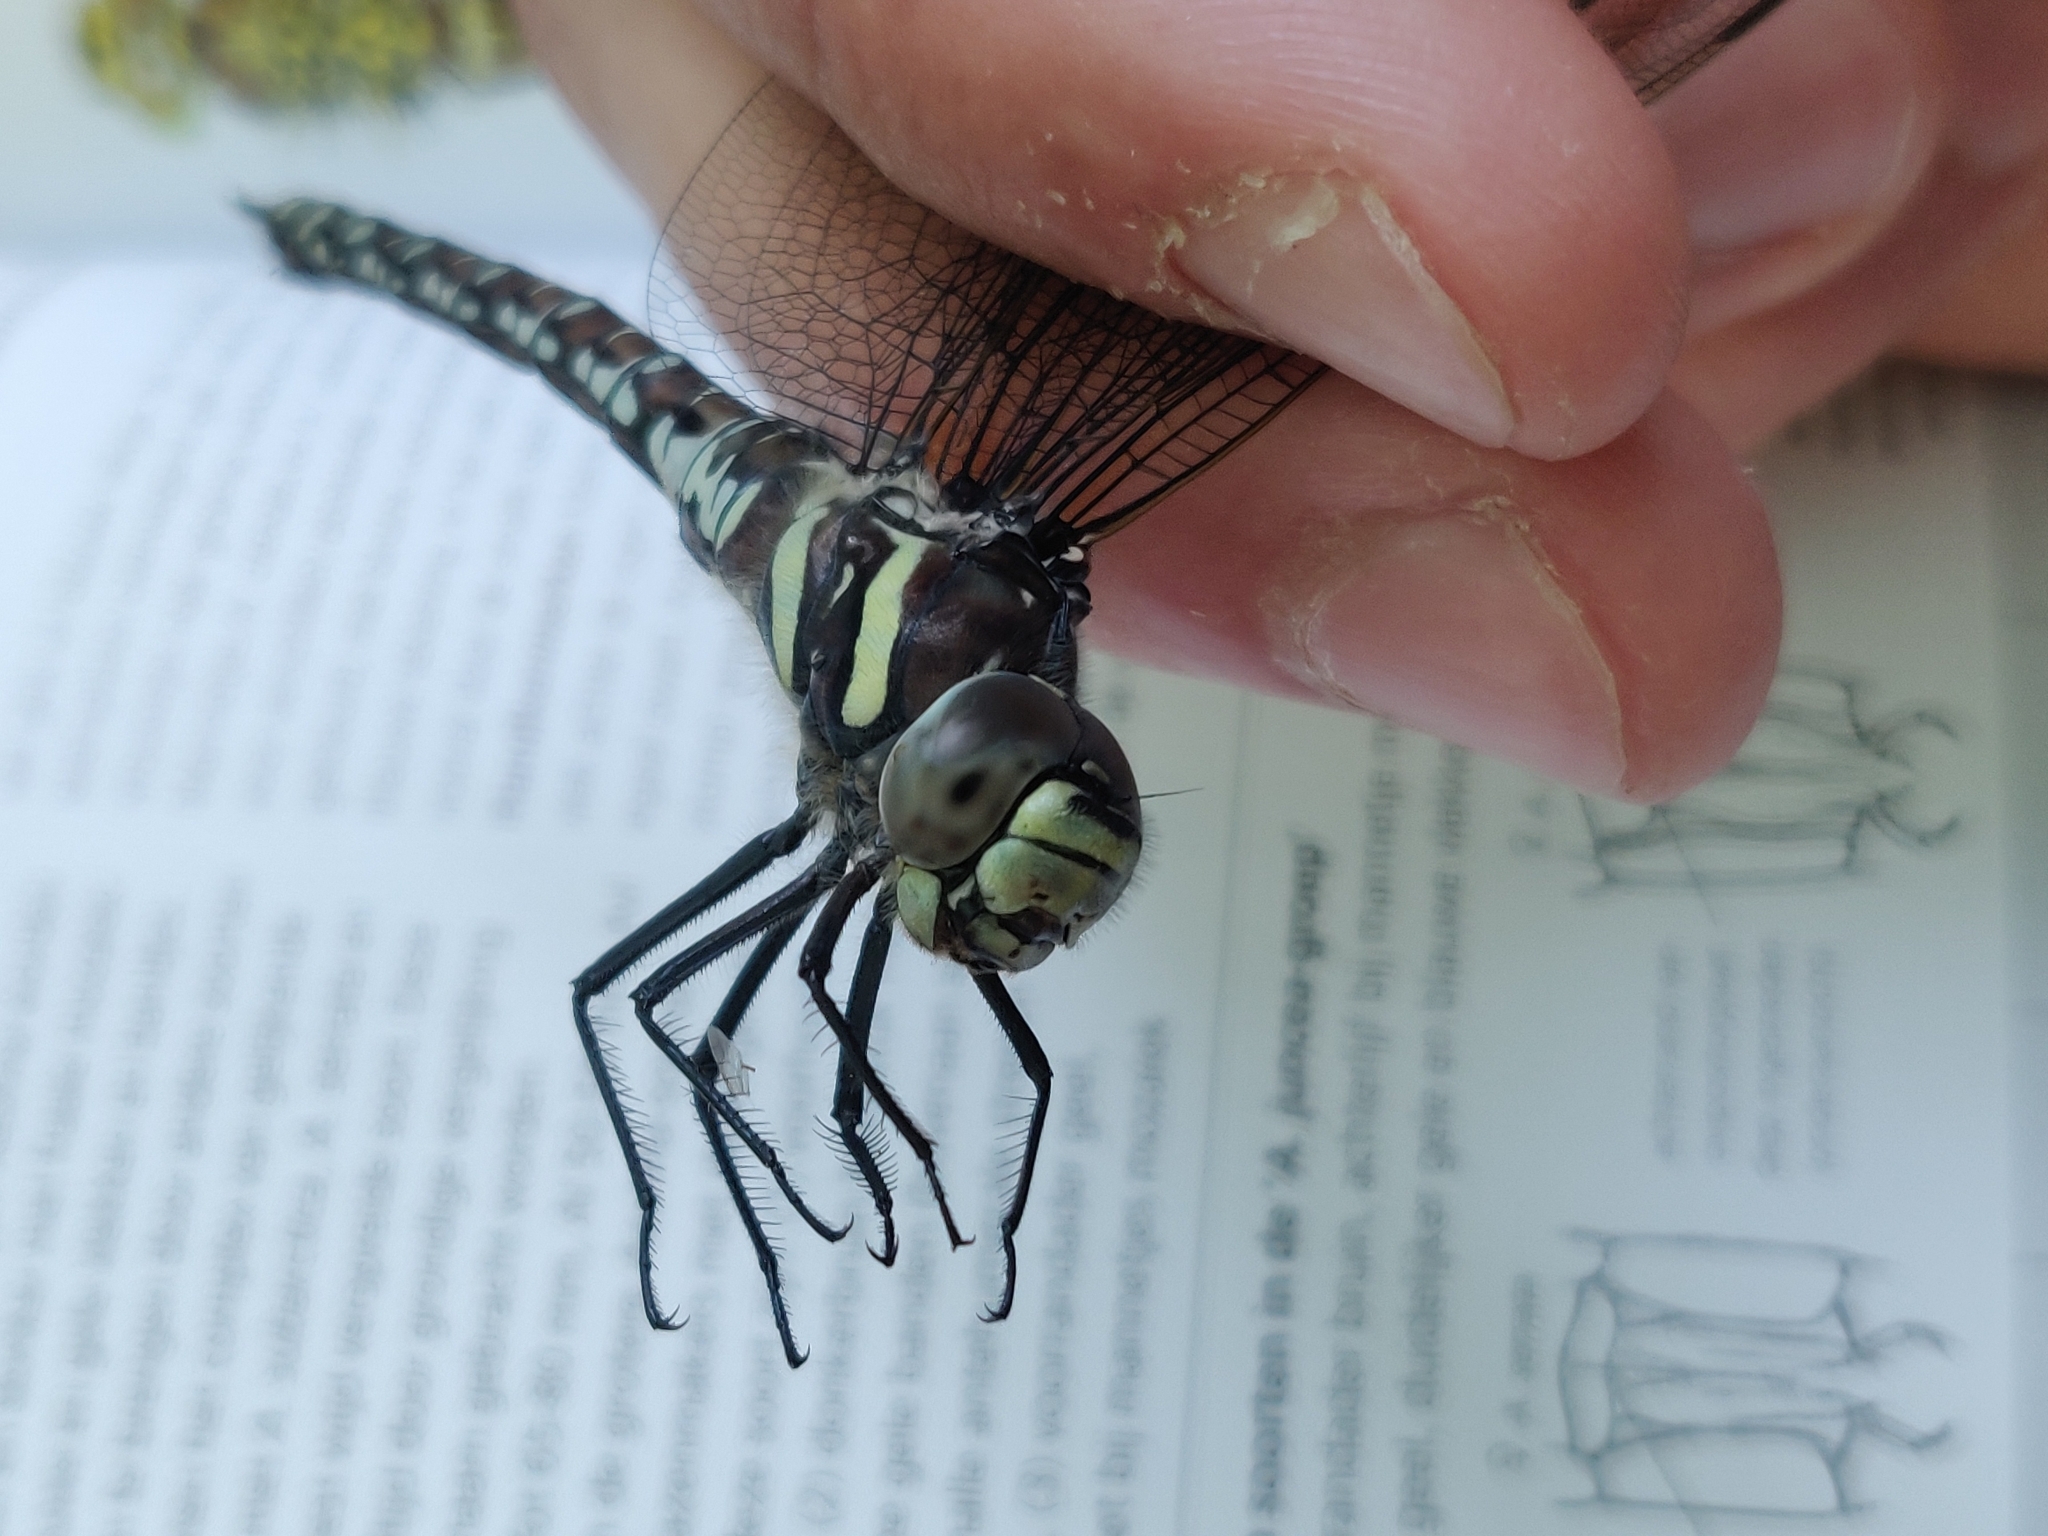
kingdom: Animalia
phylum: Arthropoda
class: Insecta
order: Odonata
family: Aeshnidae
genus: Aeshna
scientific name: Aeshna juncea
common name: Moorland hawker
